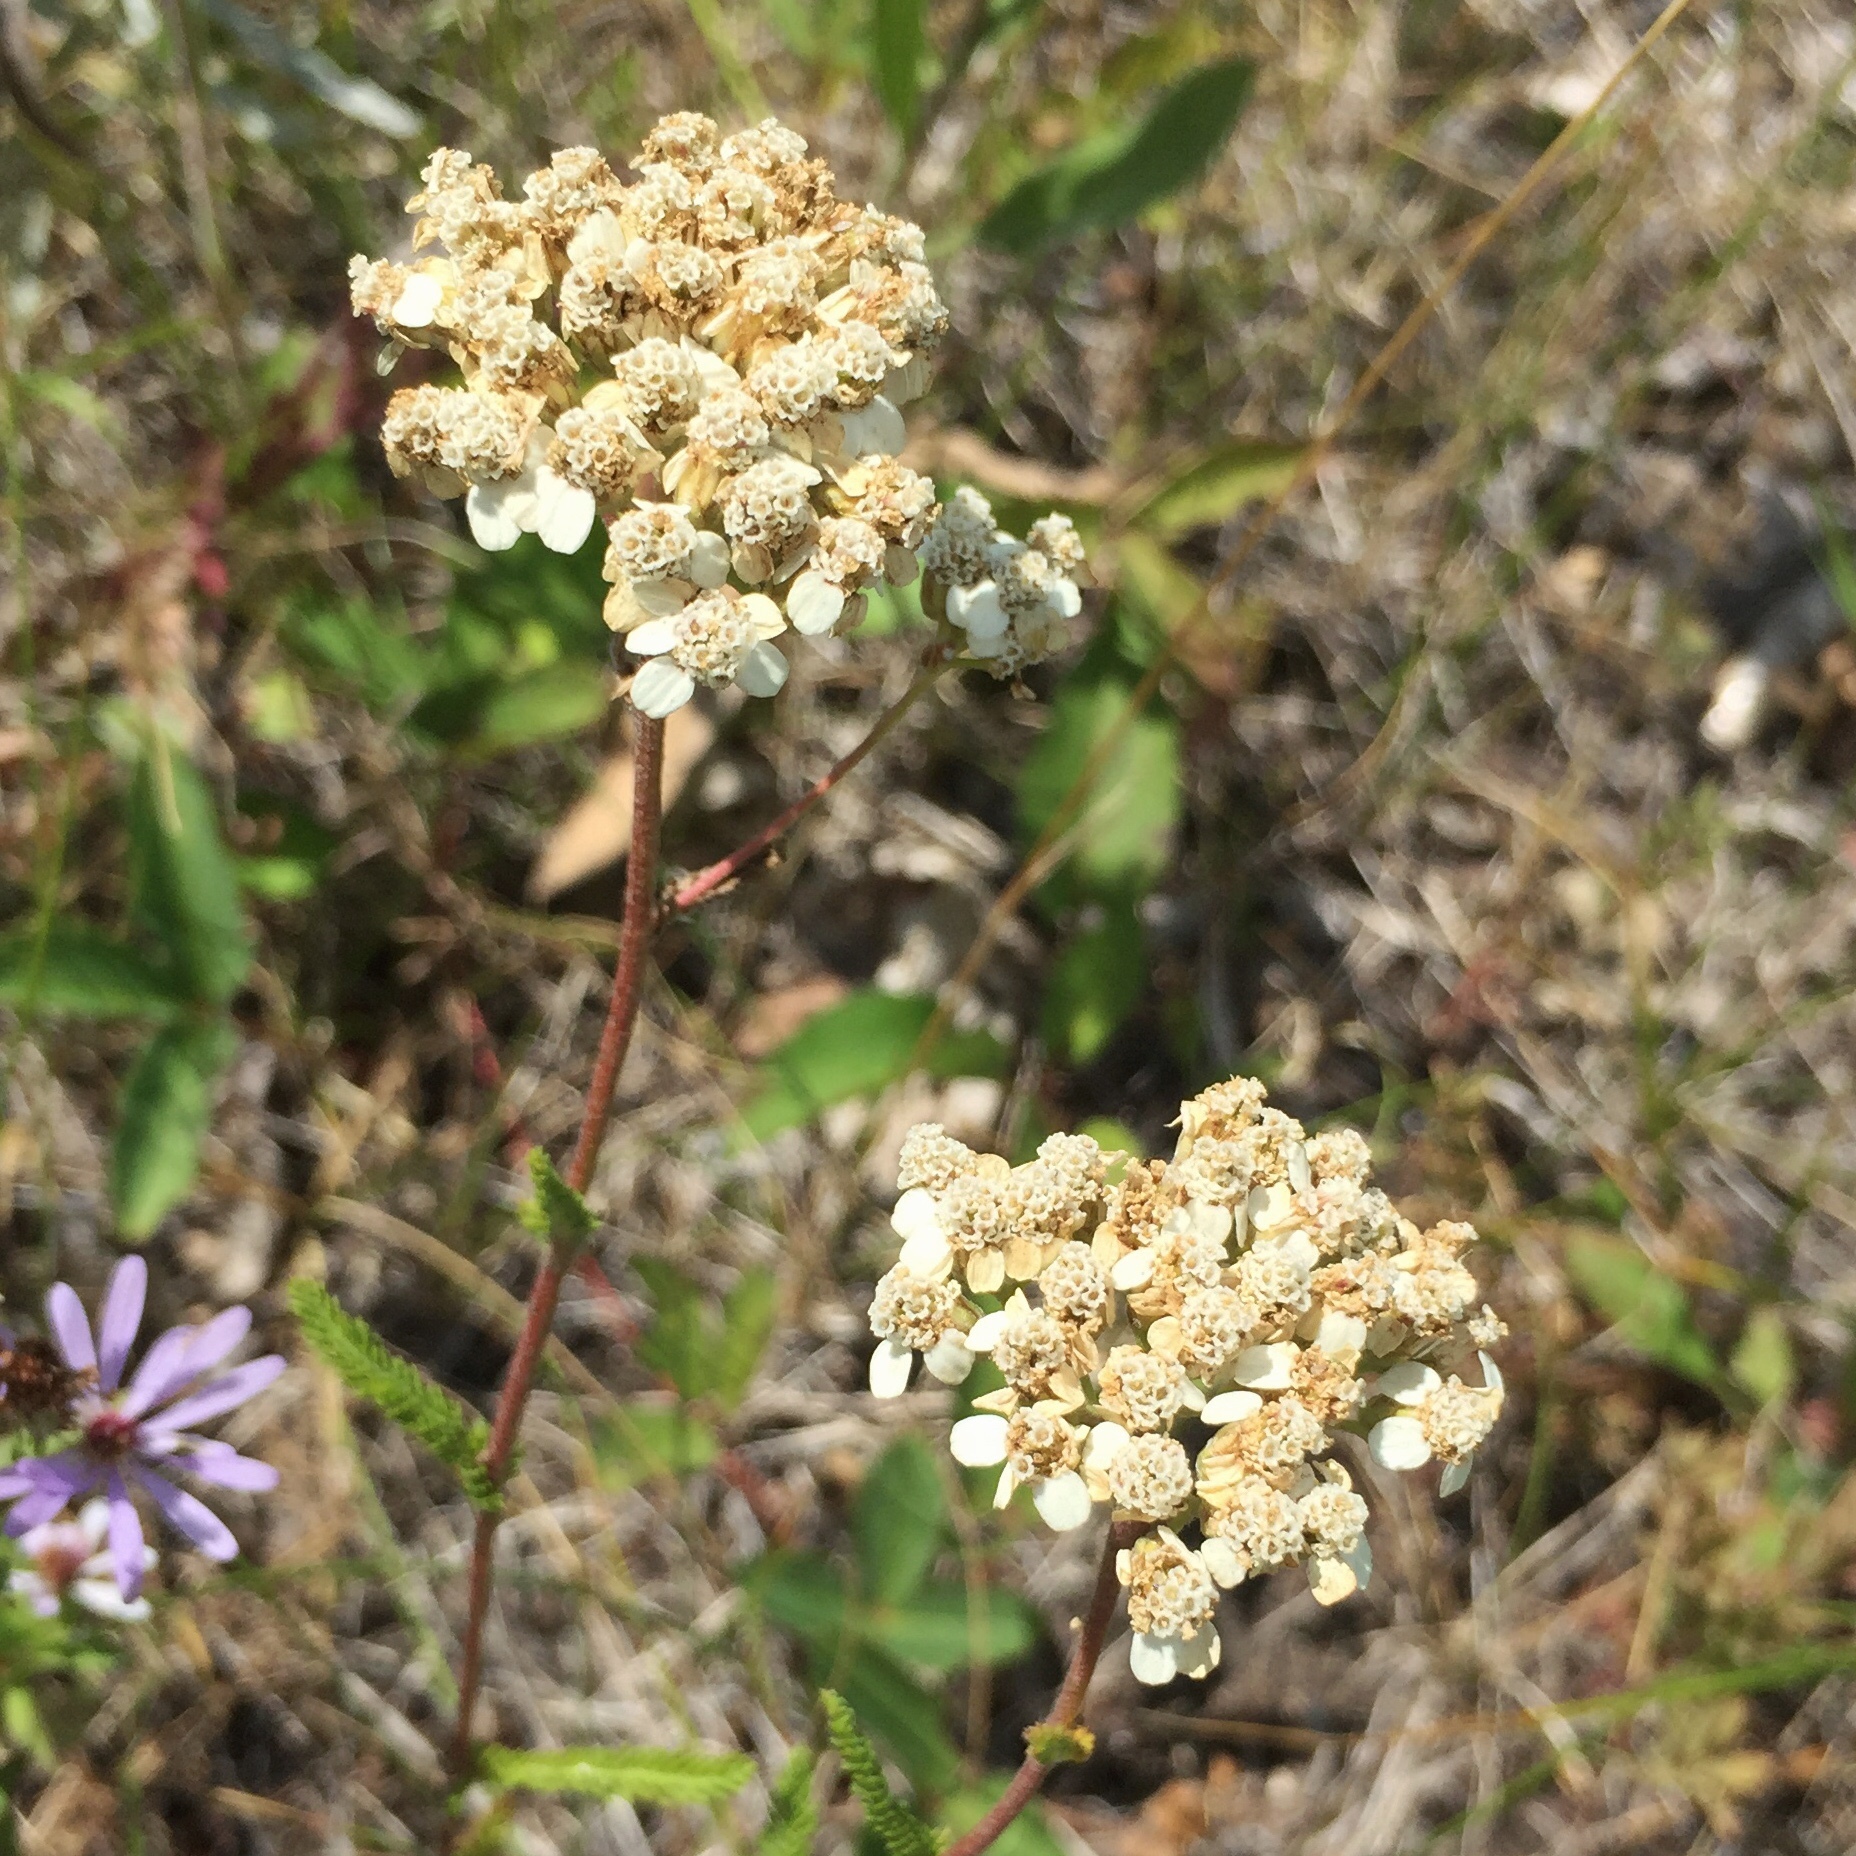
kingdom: Plantae
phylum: Tracheophyta
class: Magnoliopsida
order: Asterales
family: Asteraceae
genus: Achillea
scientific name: Achillea millefolium
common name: Yarrow
